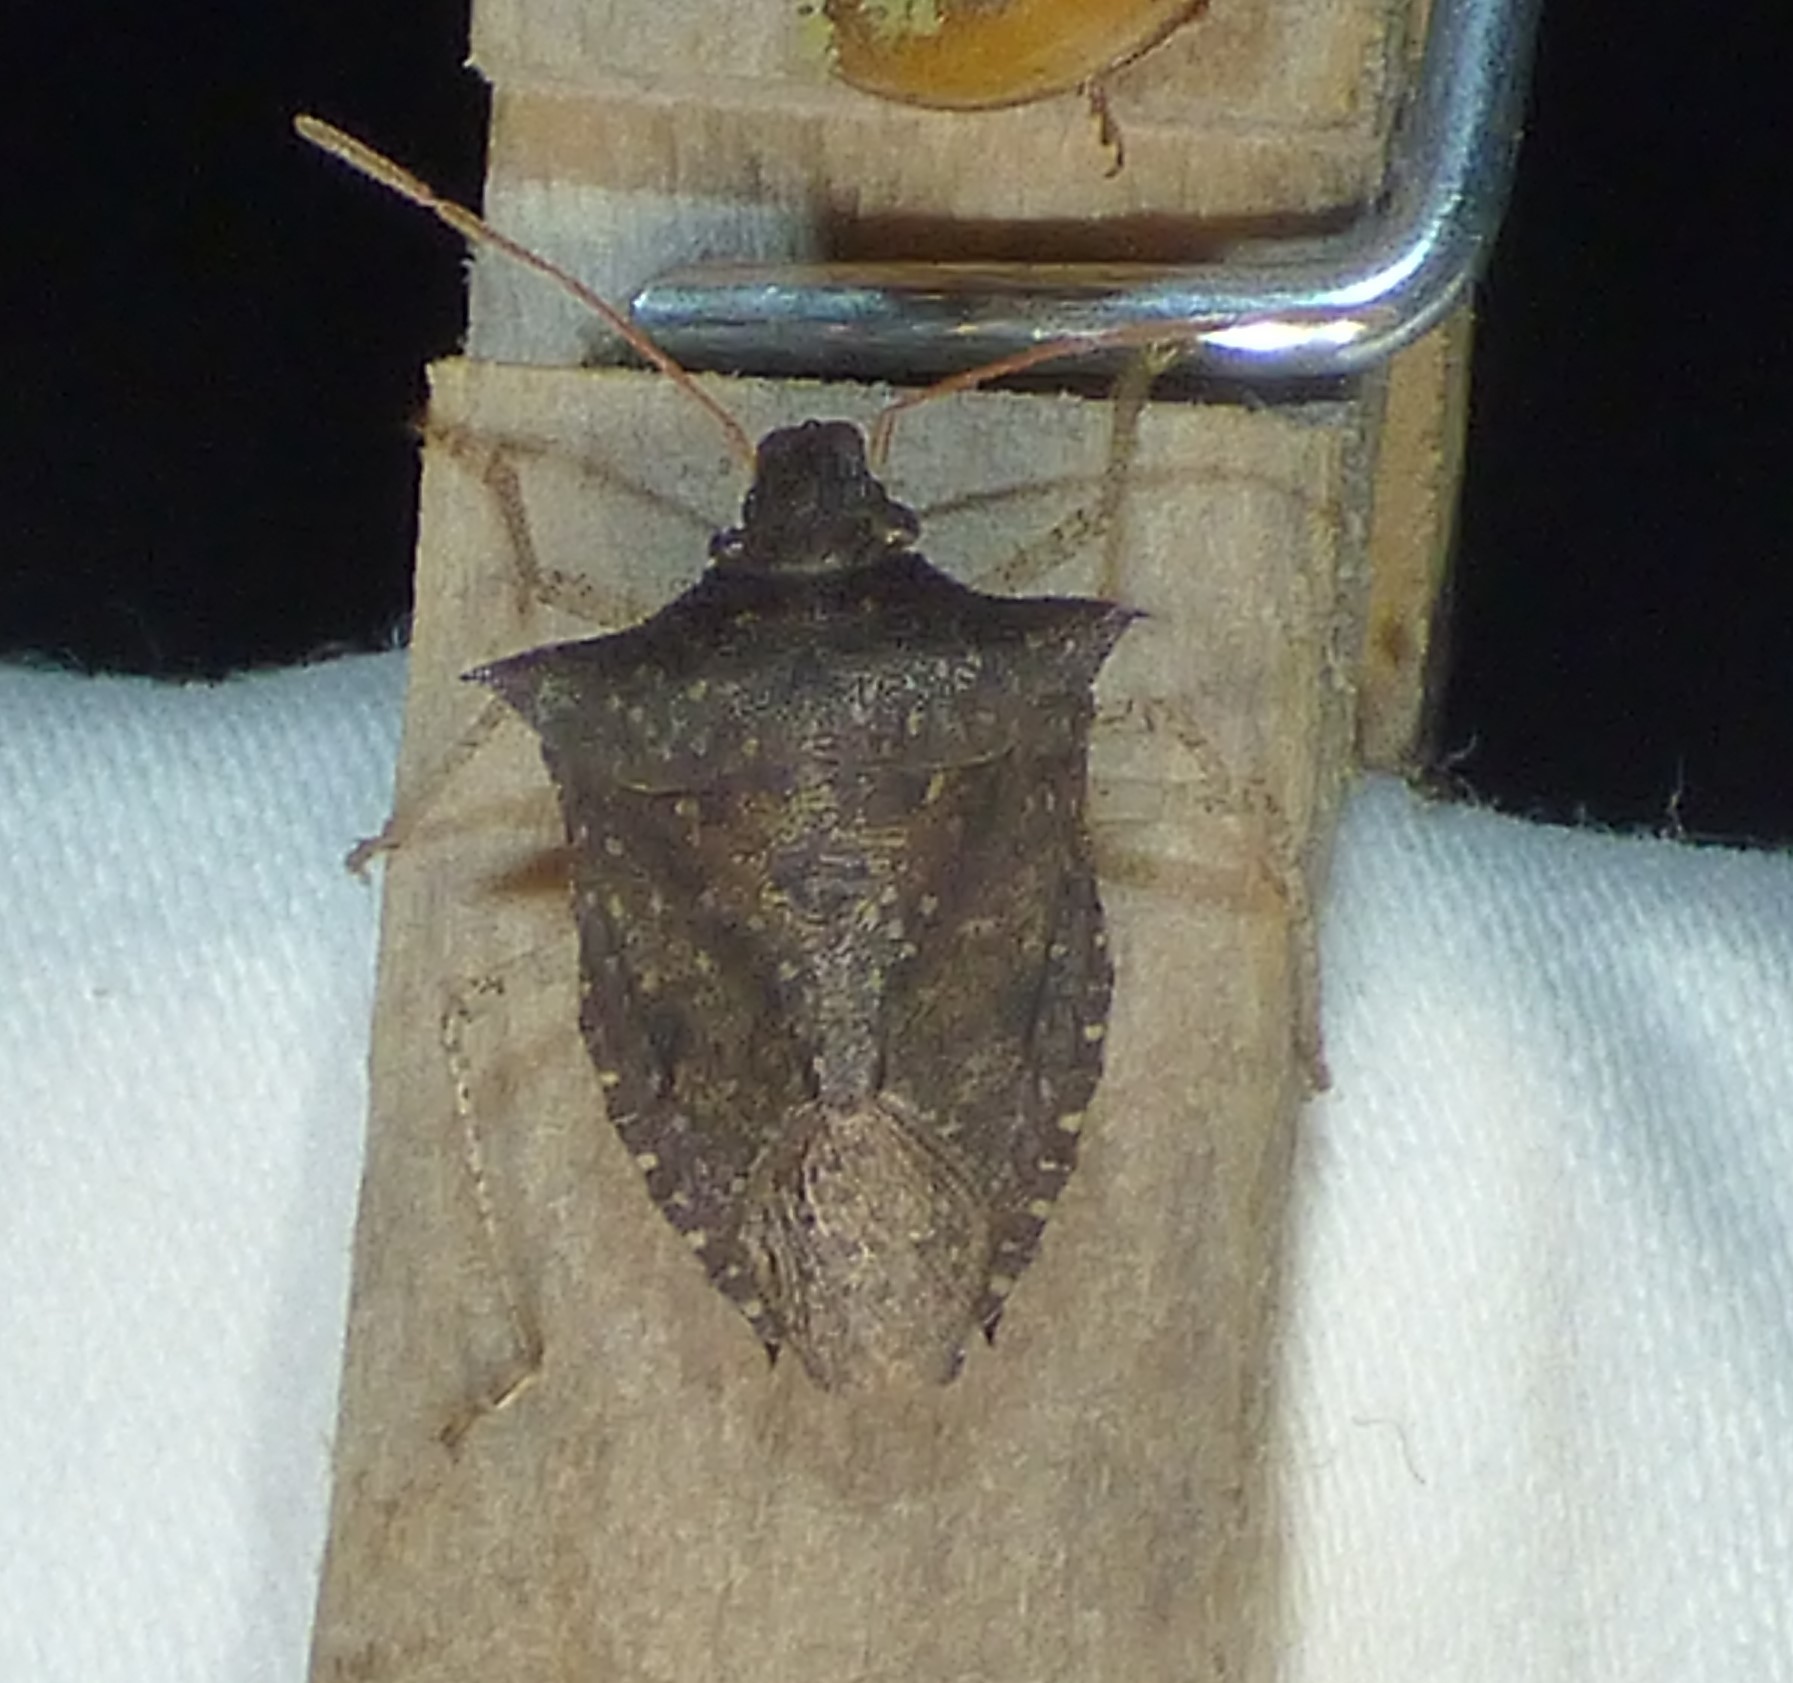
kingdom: Animalia
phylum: Arthropoda
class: Insecta
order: Hemiptera
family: Pentatomidae
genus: Euschistus
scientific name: Euschistus tristigmus
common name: Dusky stink bug
